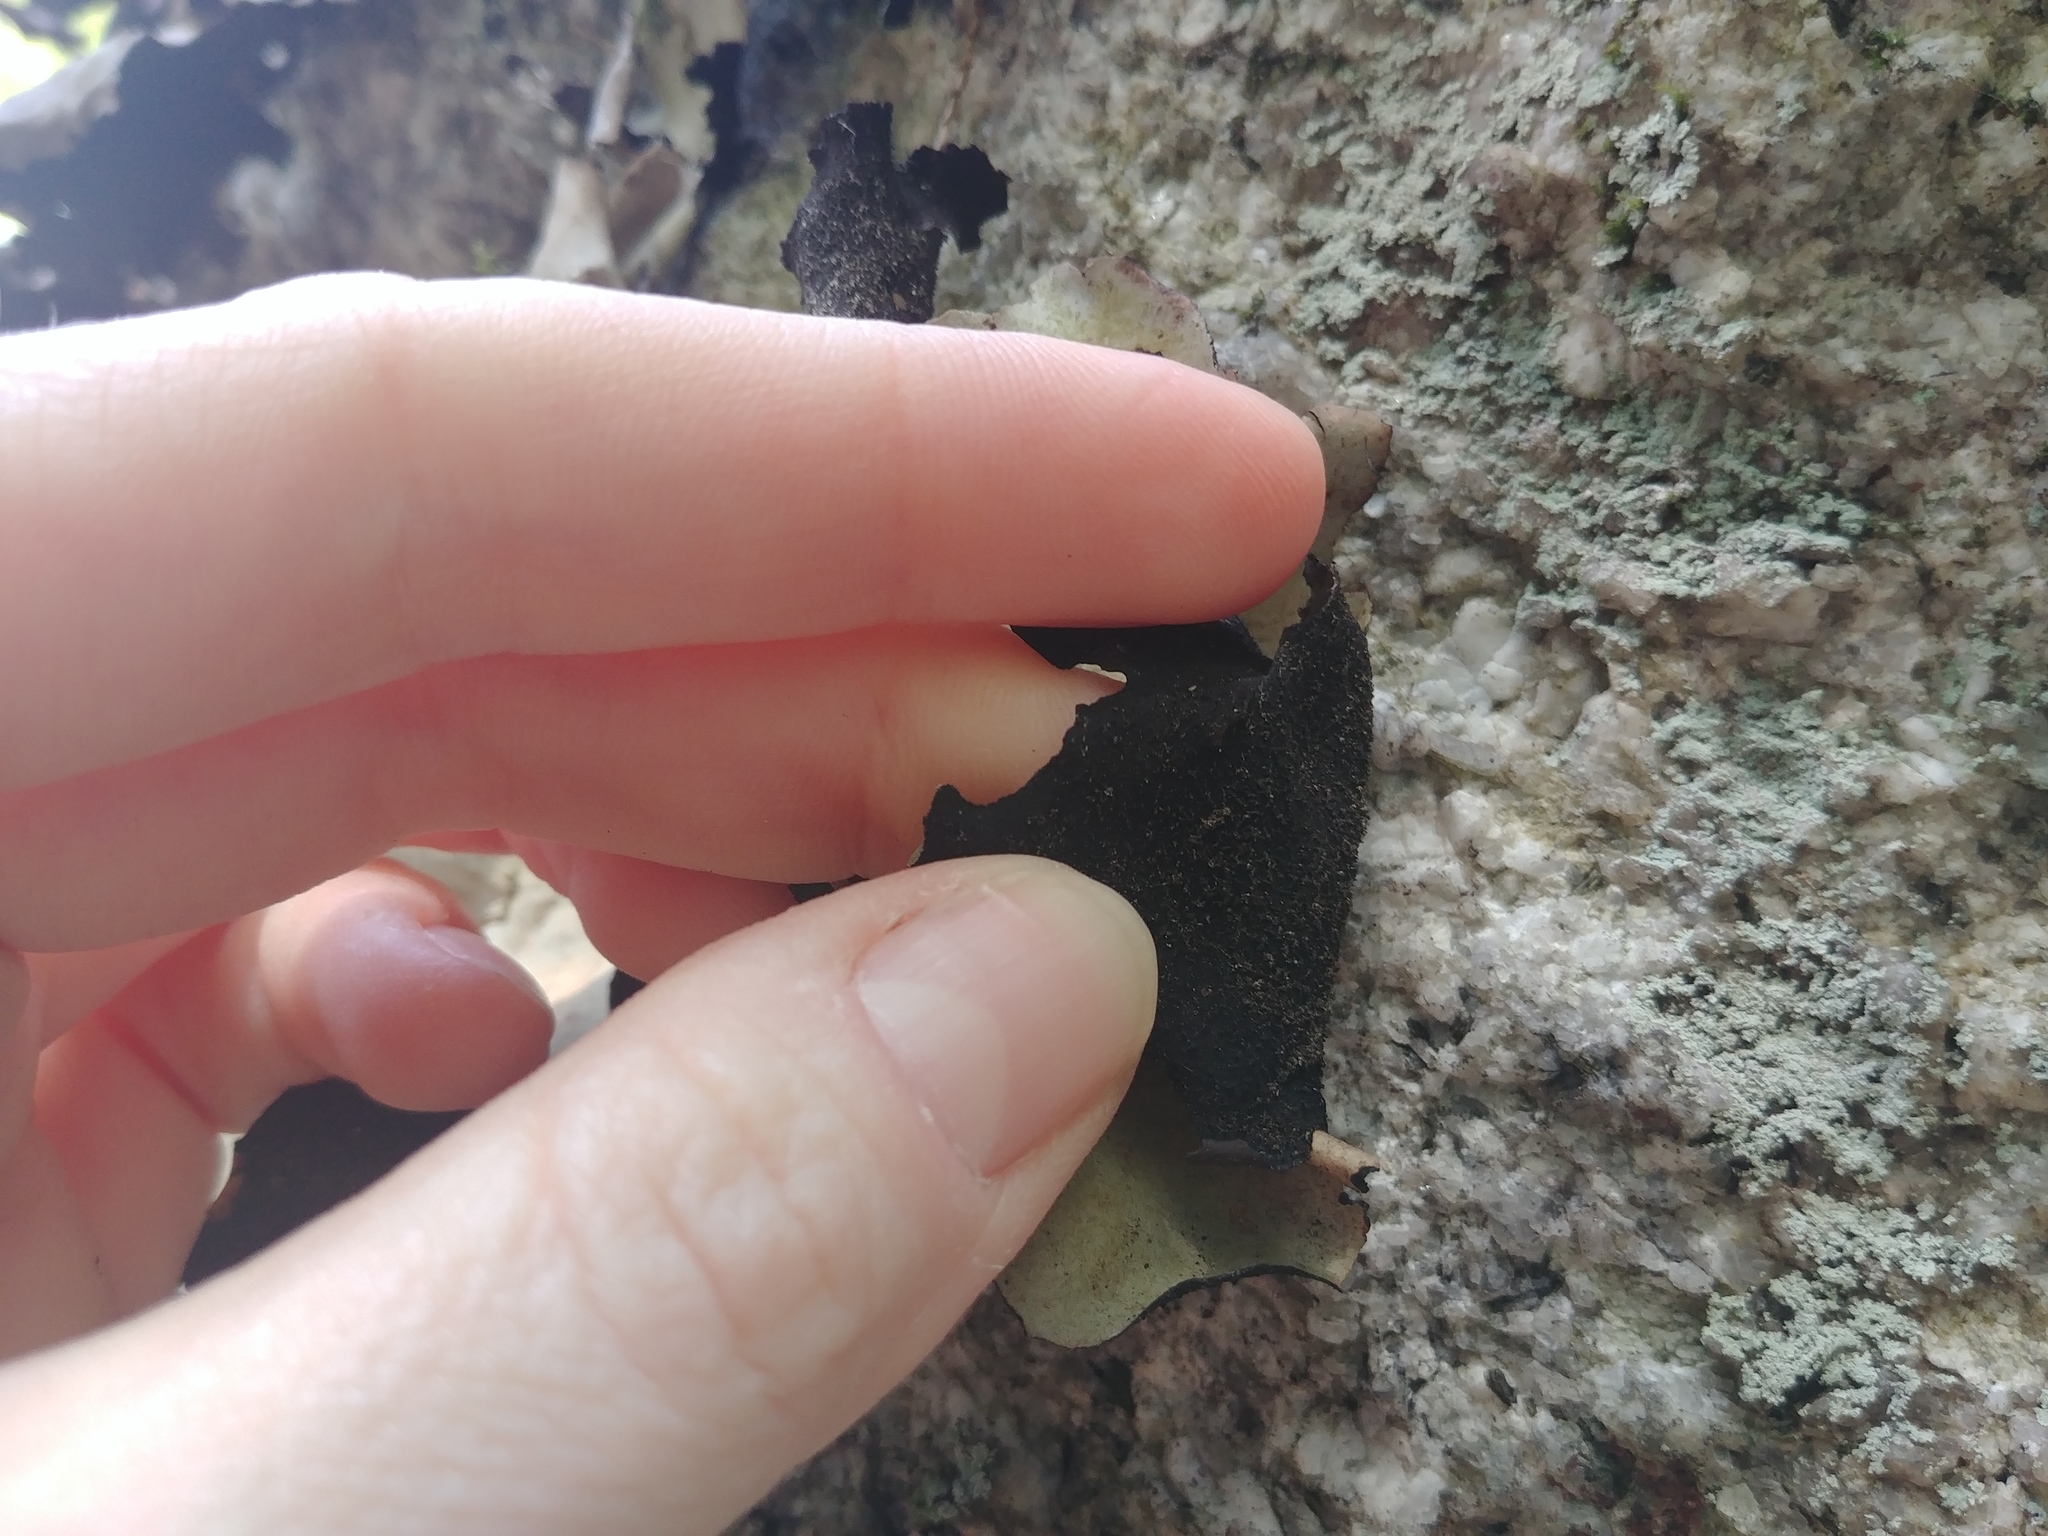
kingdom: Fungi
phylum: Ascomycota
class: Lecanoromycetes
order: Umbilicariales
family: Umbilicariaceae
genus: Umbilicaria
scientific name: Umbilicaria mammulata
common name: Smooth rock tripe
